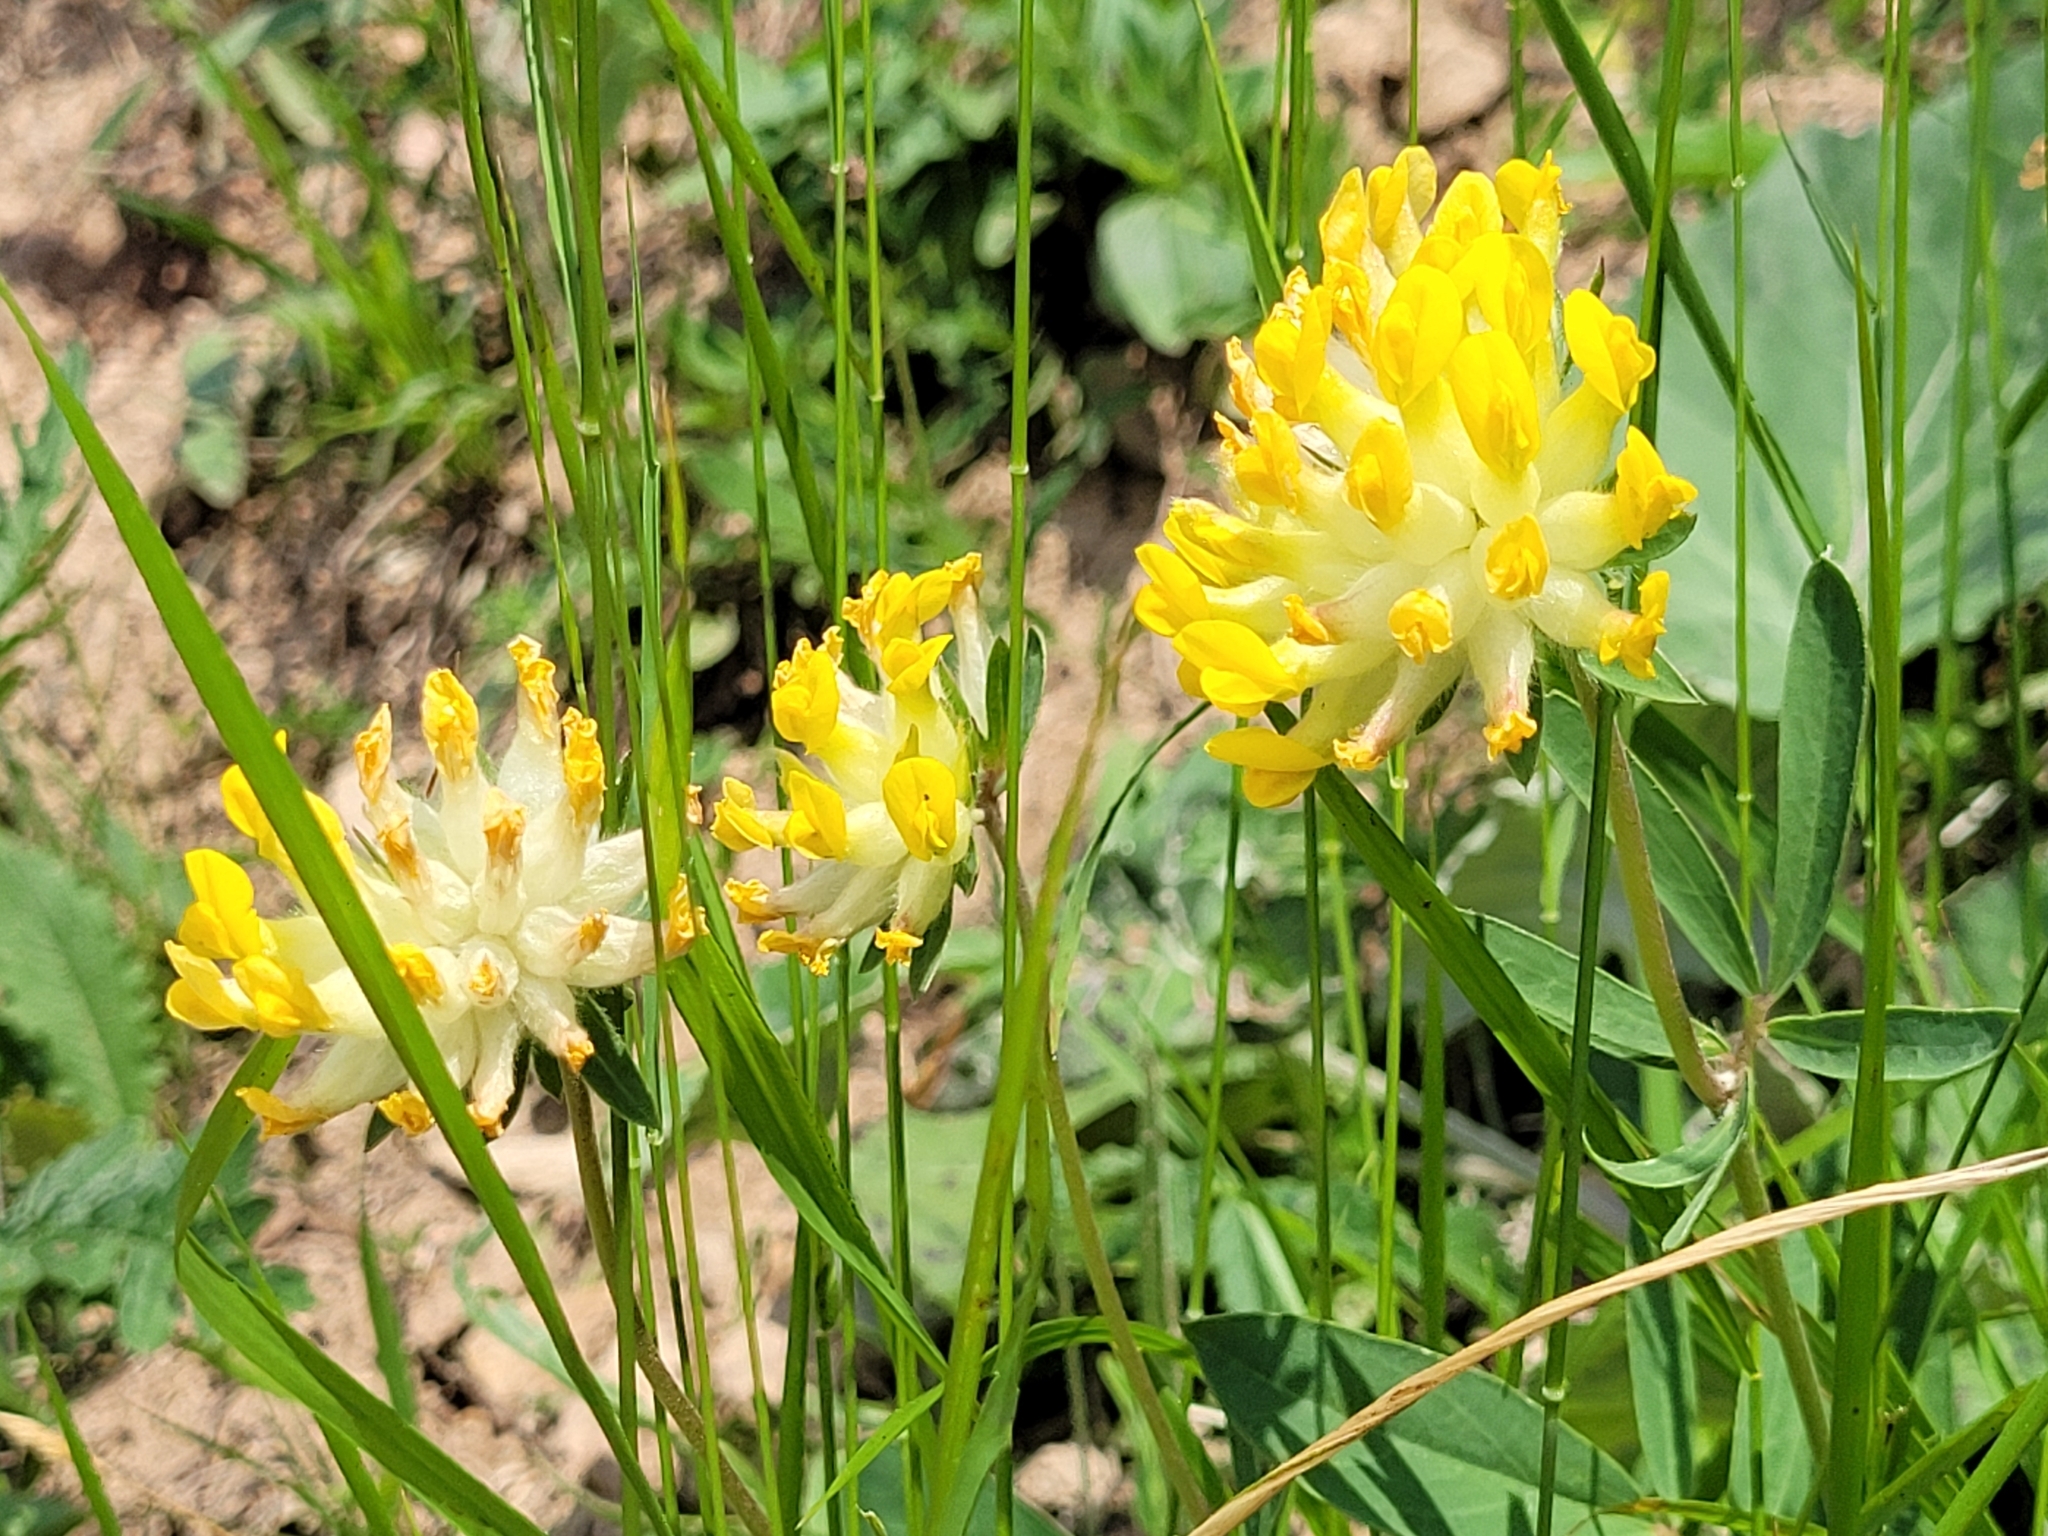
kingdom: Plantae
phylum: Tracheophyta
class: Magnoliopsida
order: Fabales
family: Fabaceae
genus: Anthyllis
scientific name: Anthyllis vulneraria
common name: Kidney vetch
